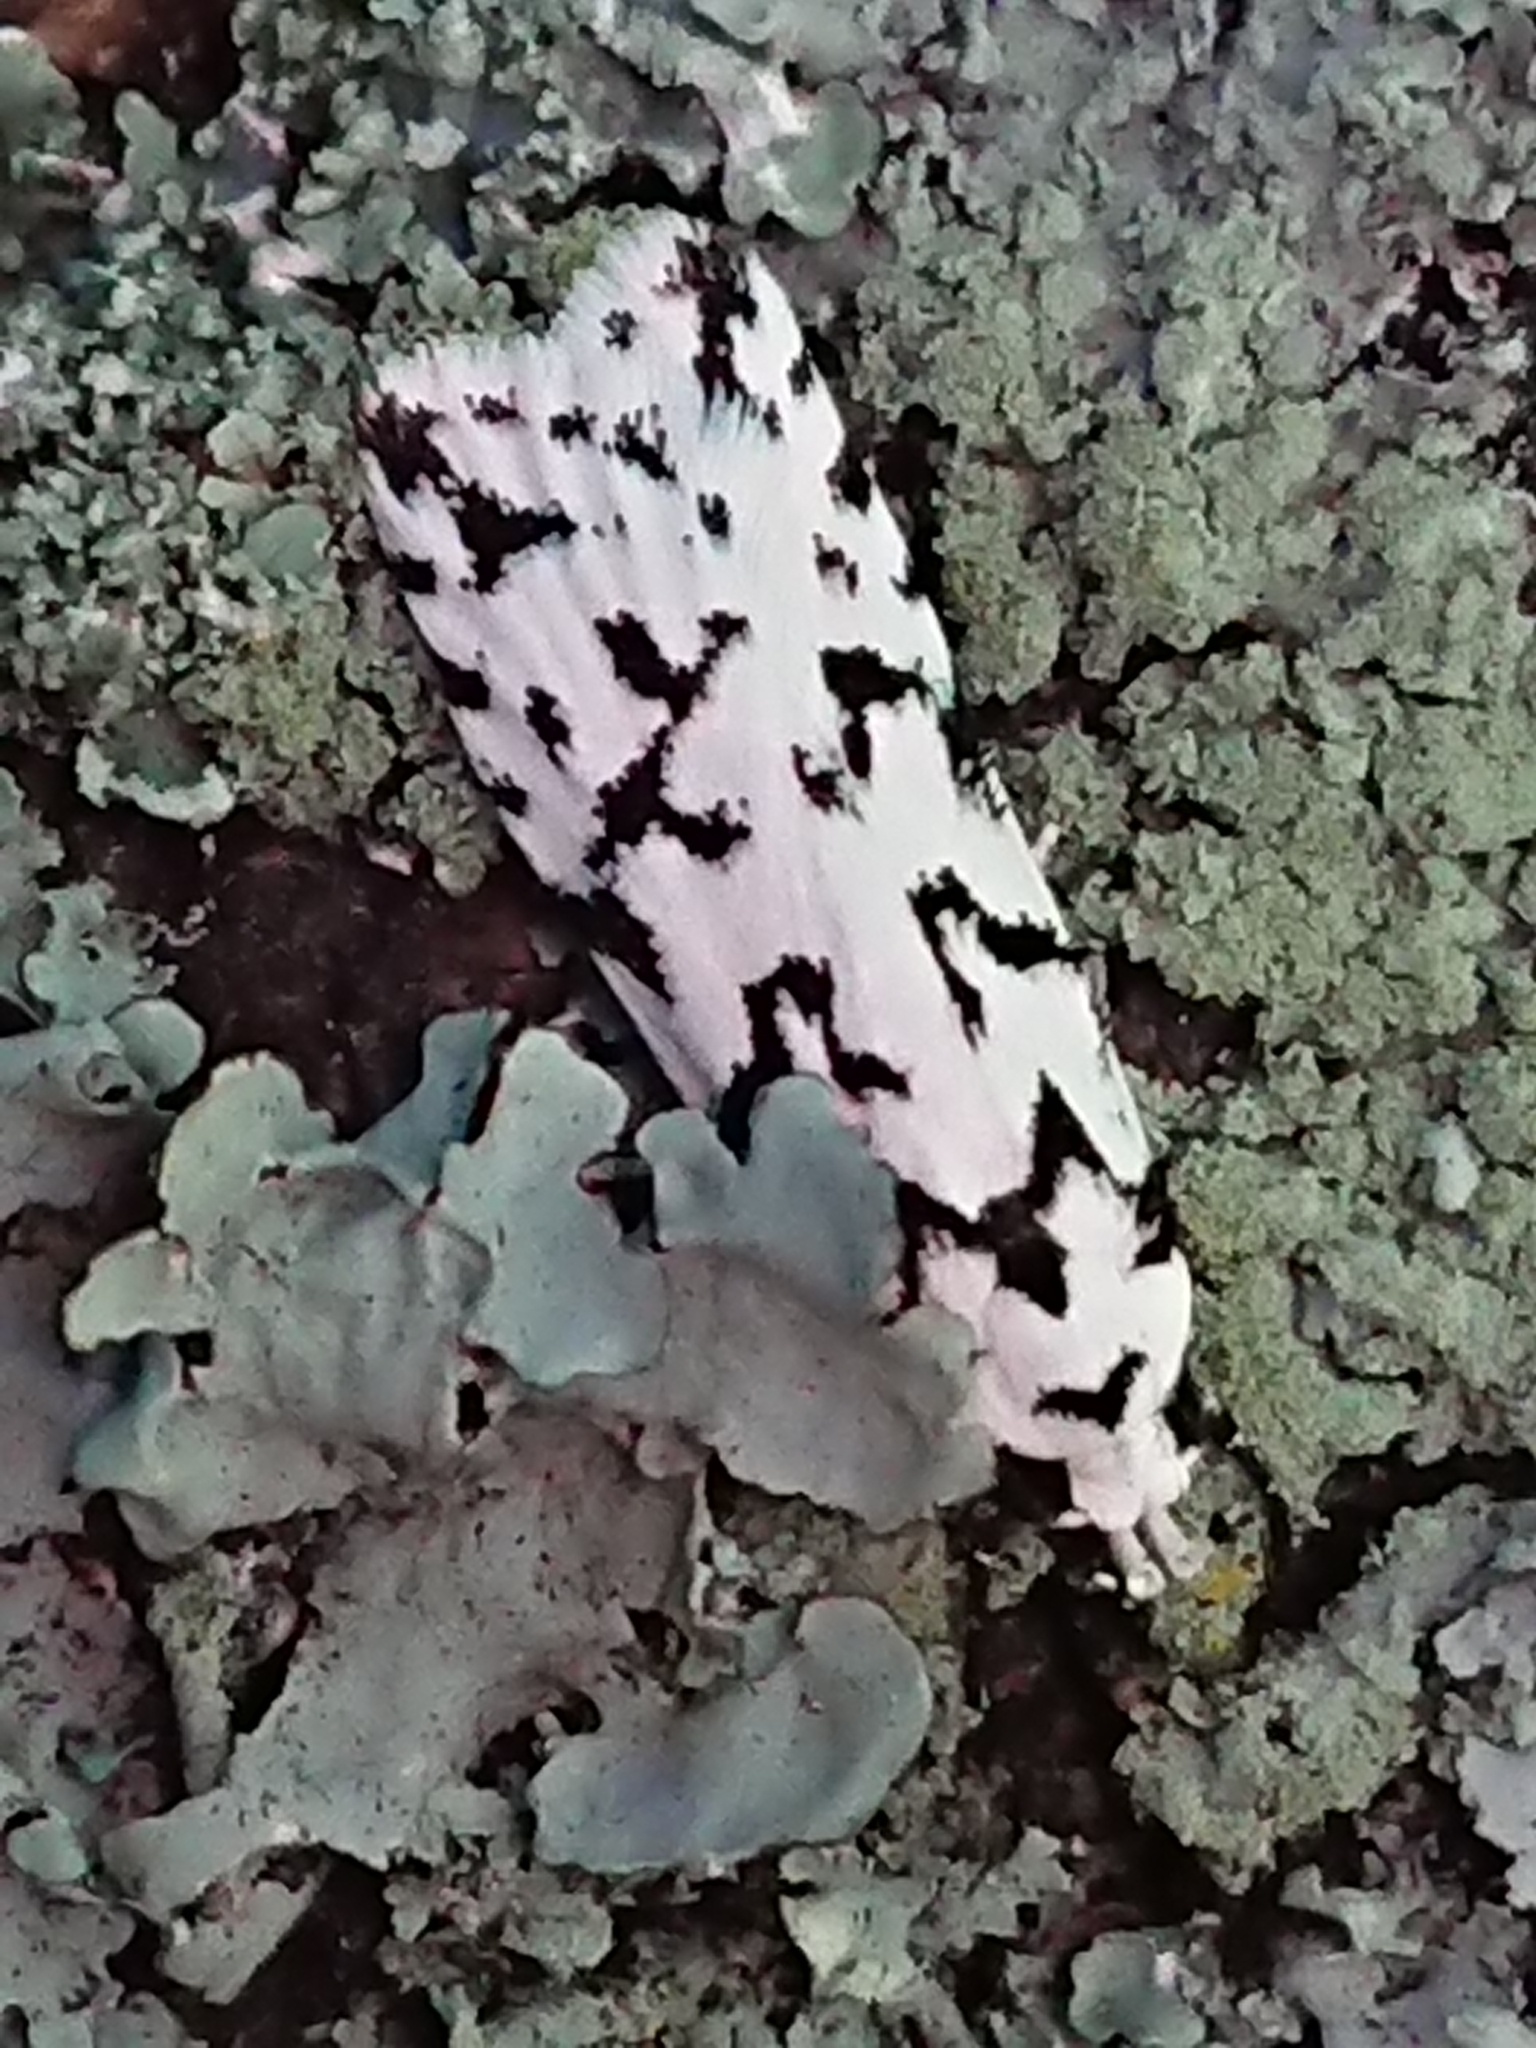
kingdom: Animalia
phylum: Arthropoda
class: Insecta
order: Lepidoptera
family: Oecophoridae
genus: Izatha
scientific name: Izatha katadiktya
